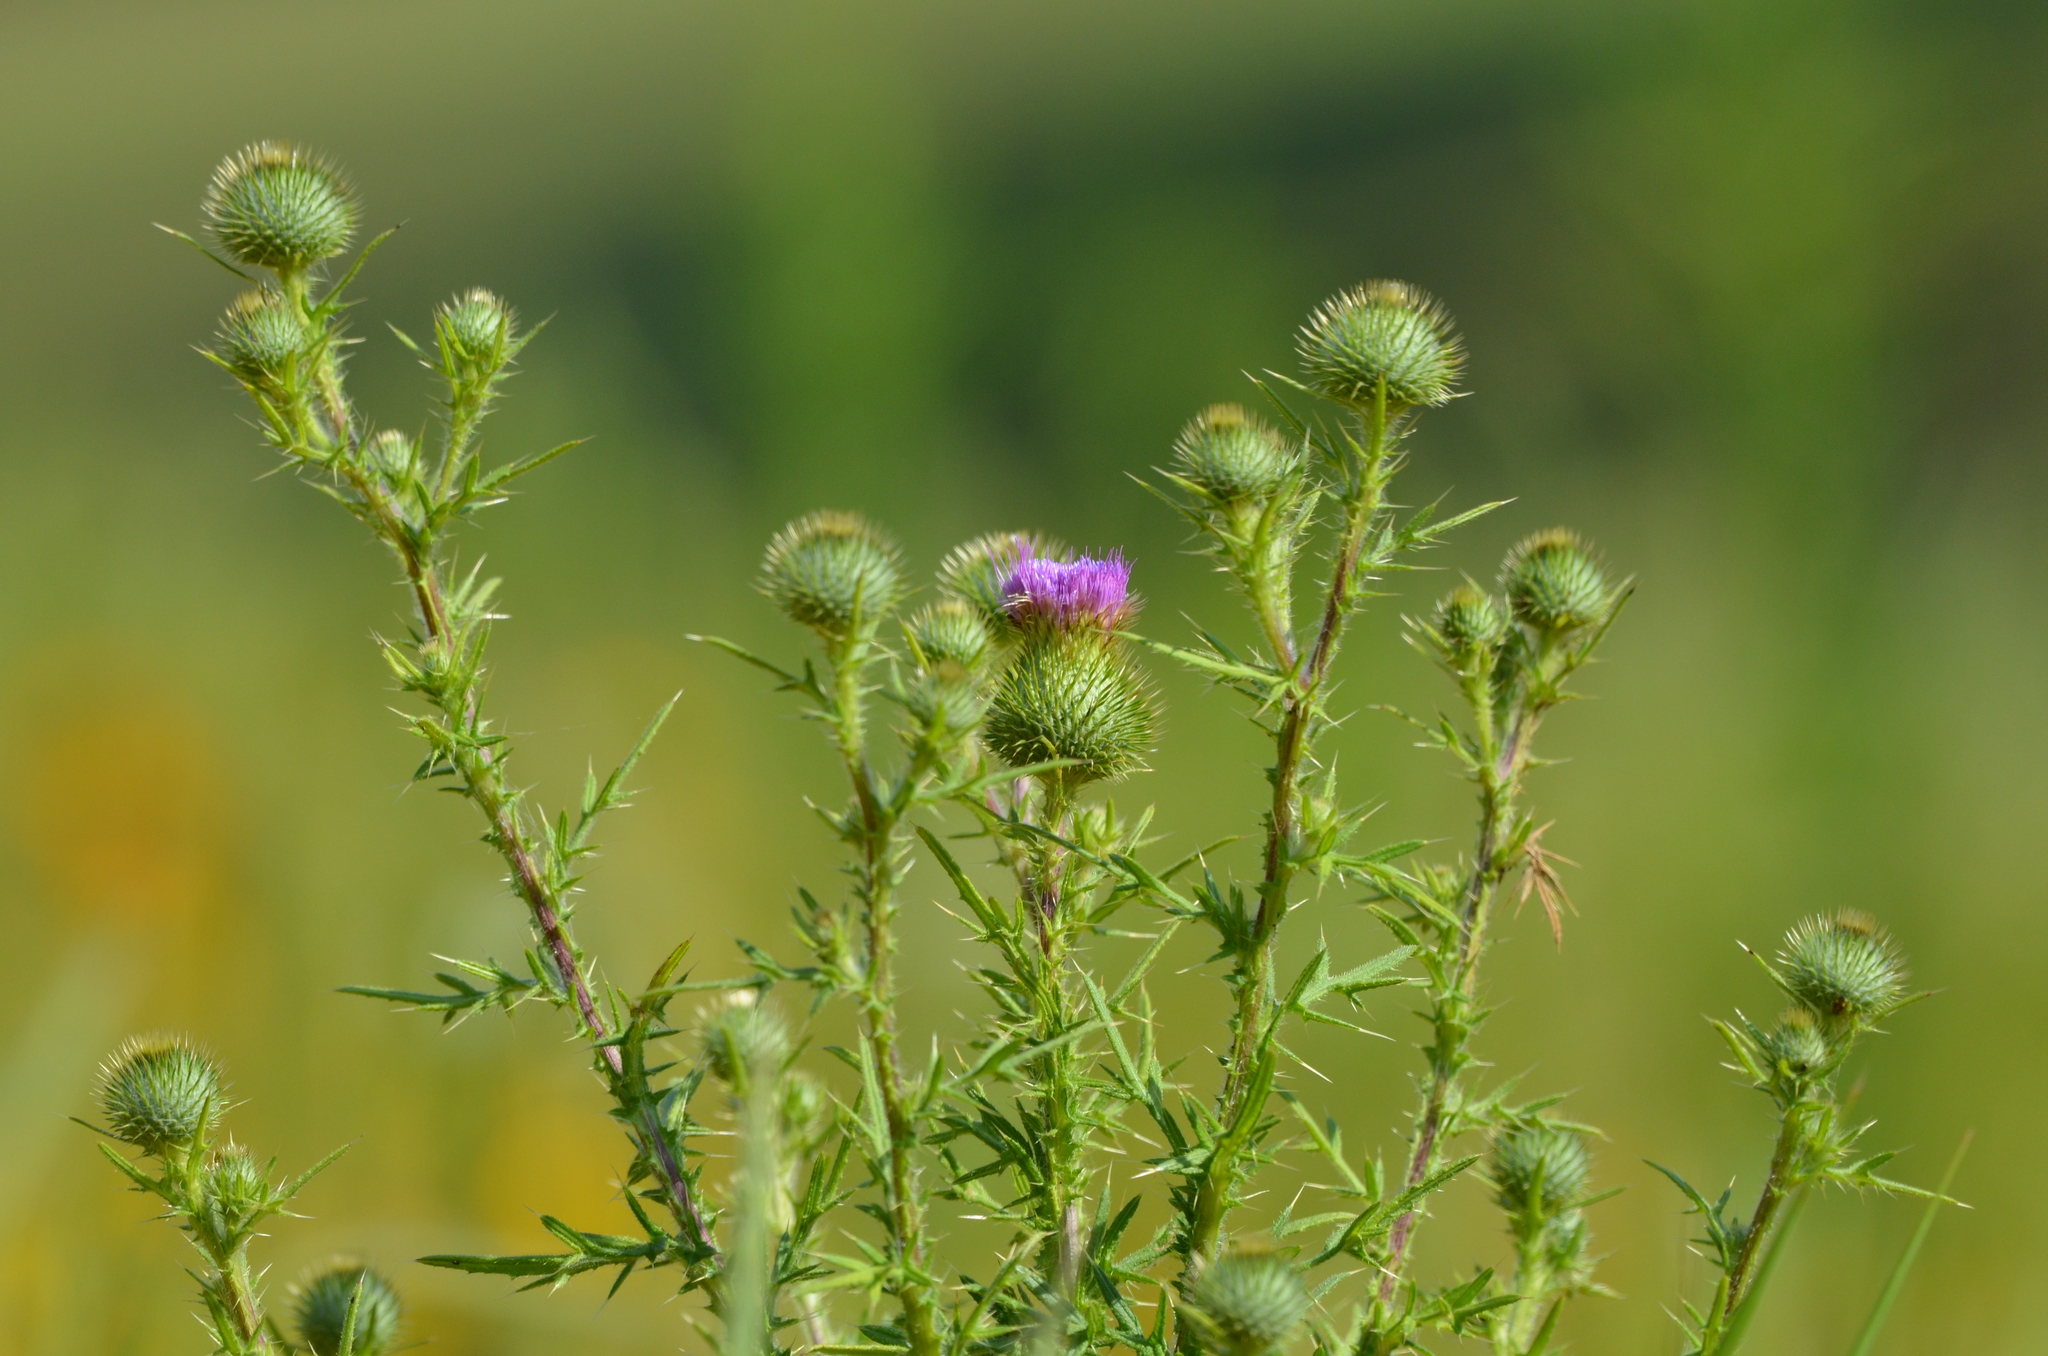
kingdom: Plantae
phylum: Tracheophyta
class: Magnoliopsida
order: Asterales
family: Asteraceae
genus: Cirsium
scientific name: Cirsium vulgare
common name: Bull thistle
